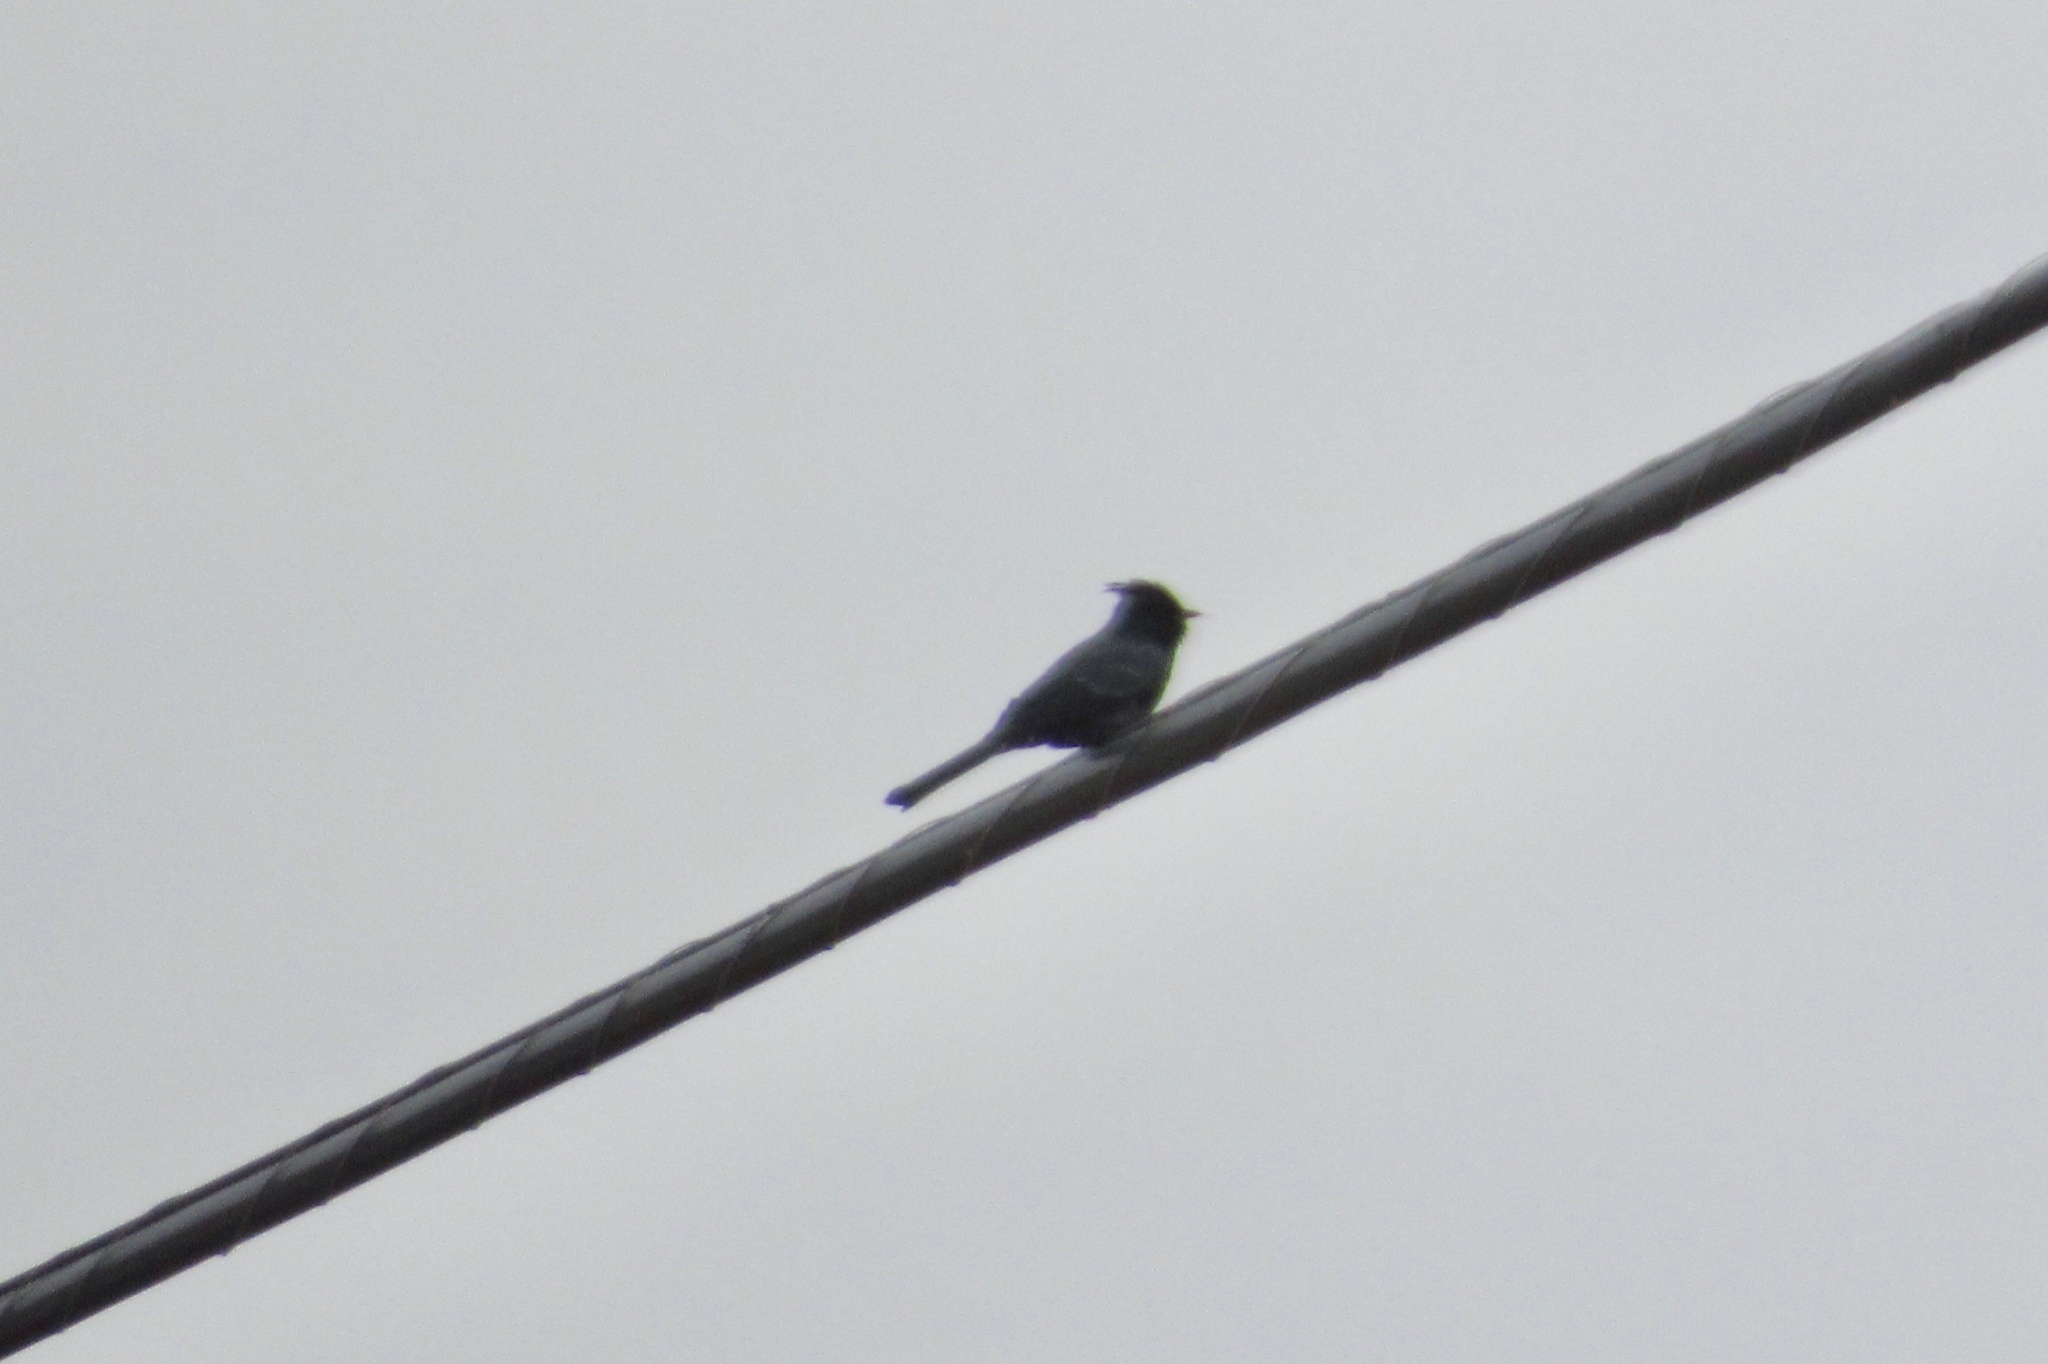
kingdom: Animalia
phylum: Chordata
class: Aves
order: Passeriformes
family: Ptilogonatidae
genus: Phainopepla
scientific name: Phainopepla nitens
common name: Phainopepla
